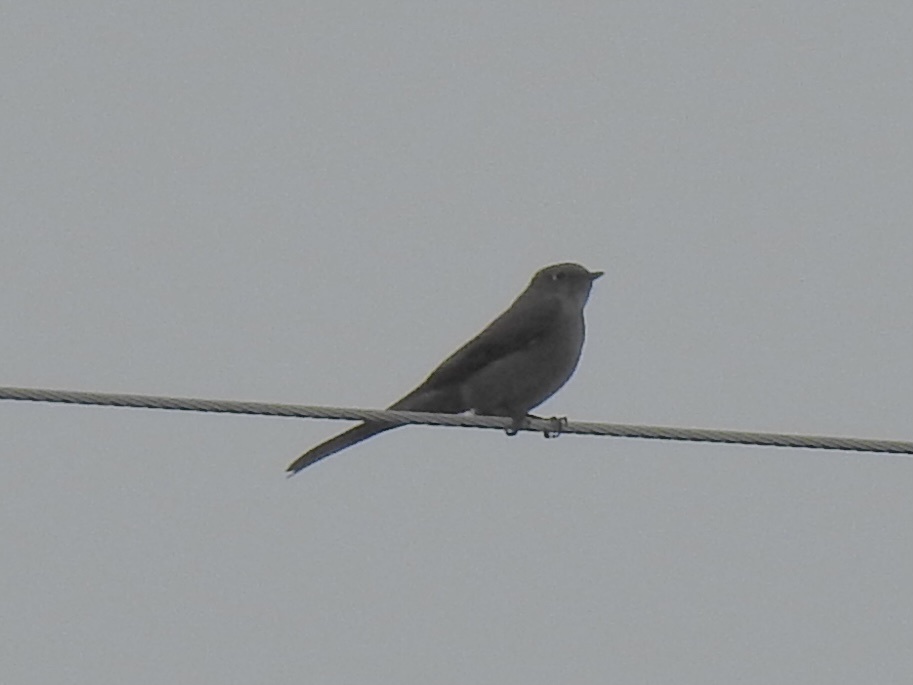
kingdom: Animalia
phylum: Chordata
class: Aves
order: Passeriformes
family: Turdidae
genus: Myadestes
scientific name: Myadestes townsendi
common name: Townsend's solitaire
